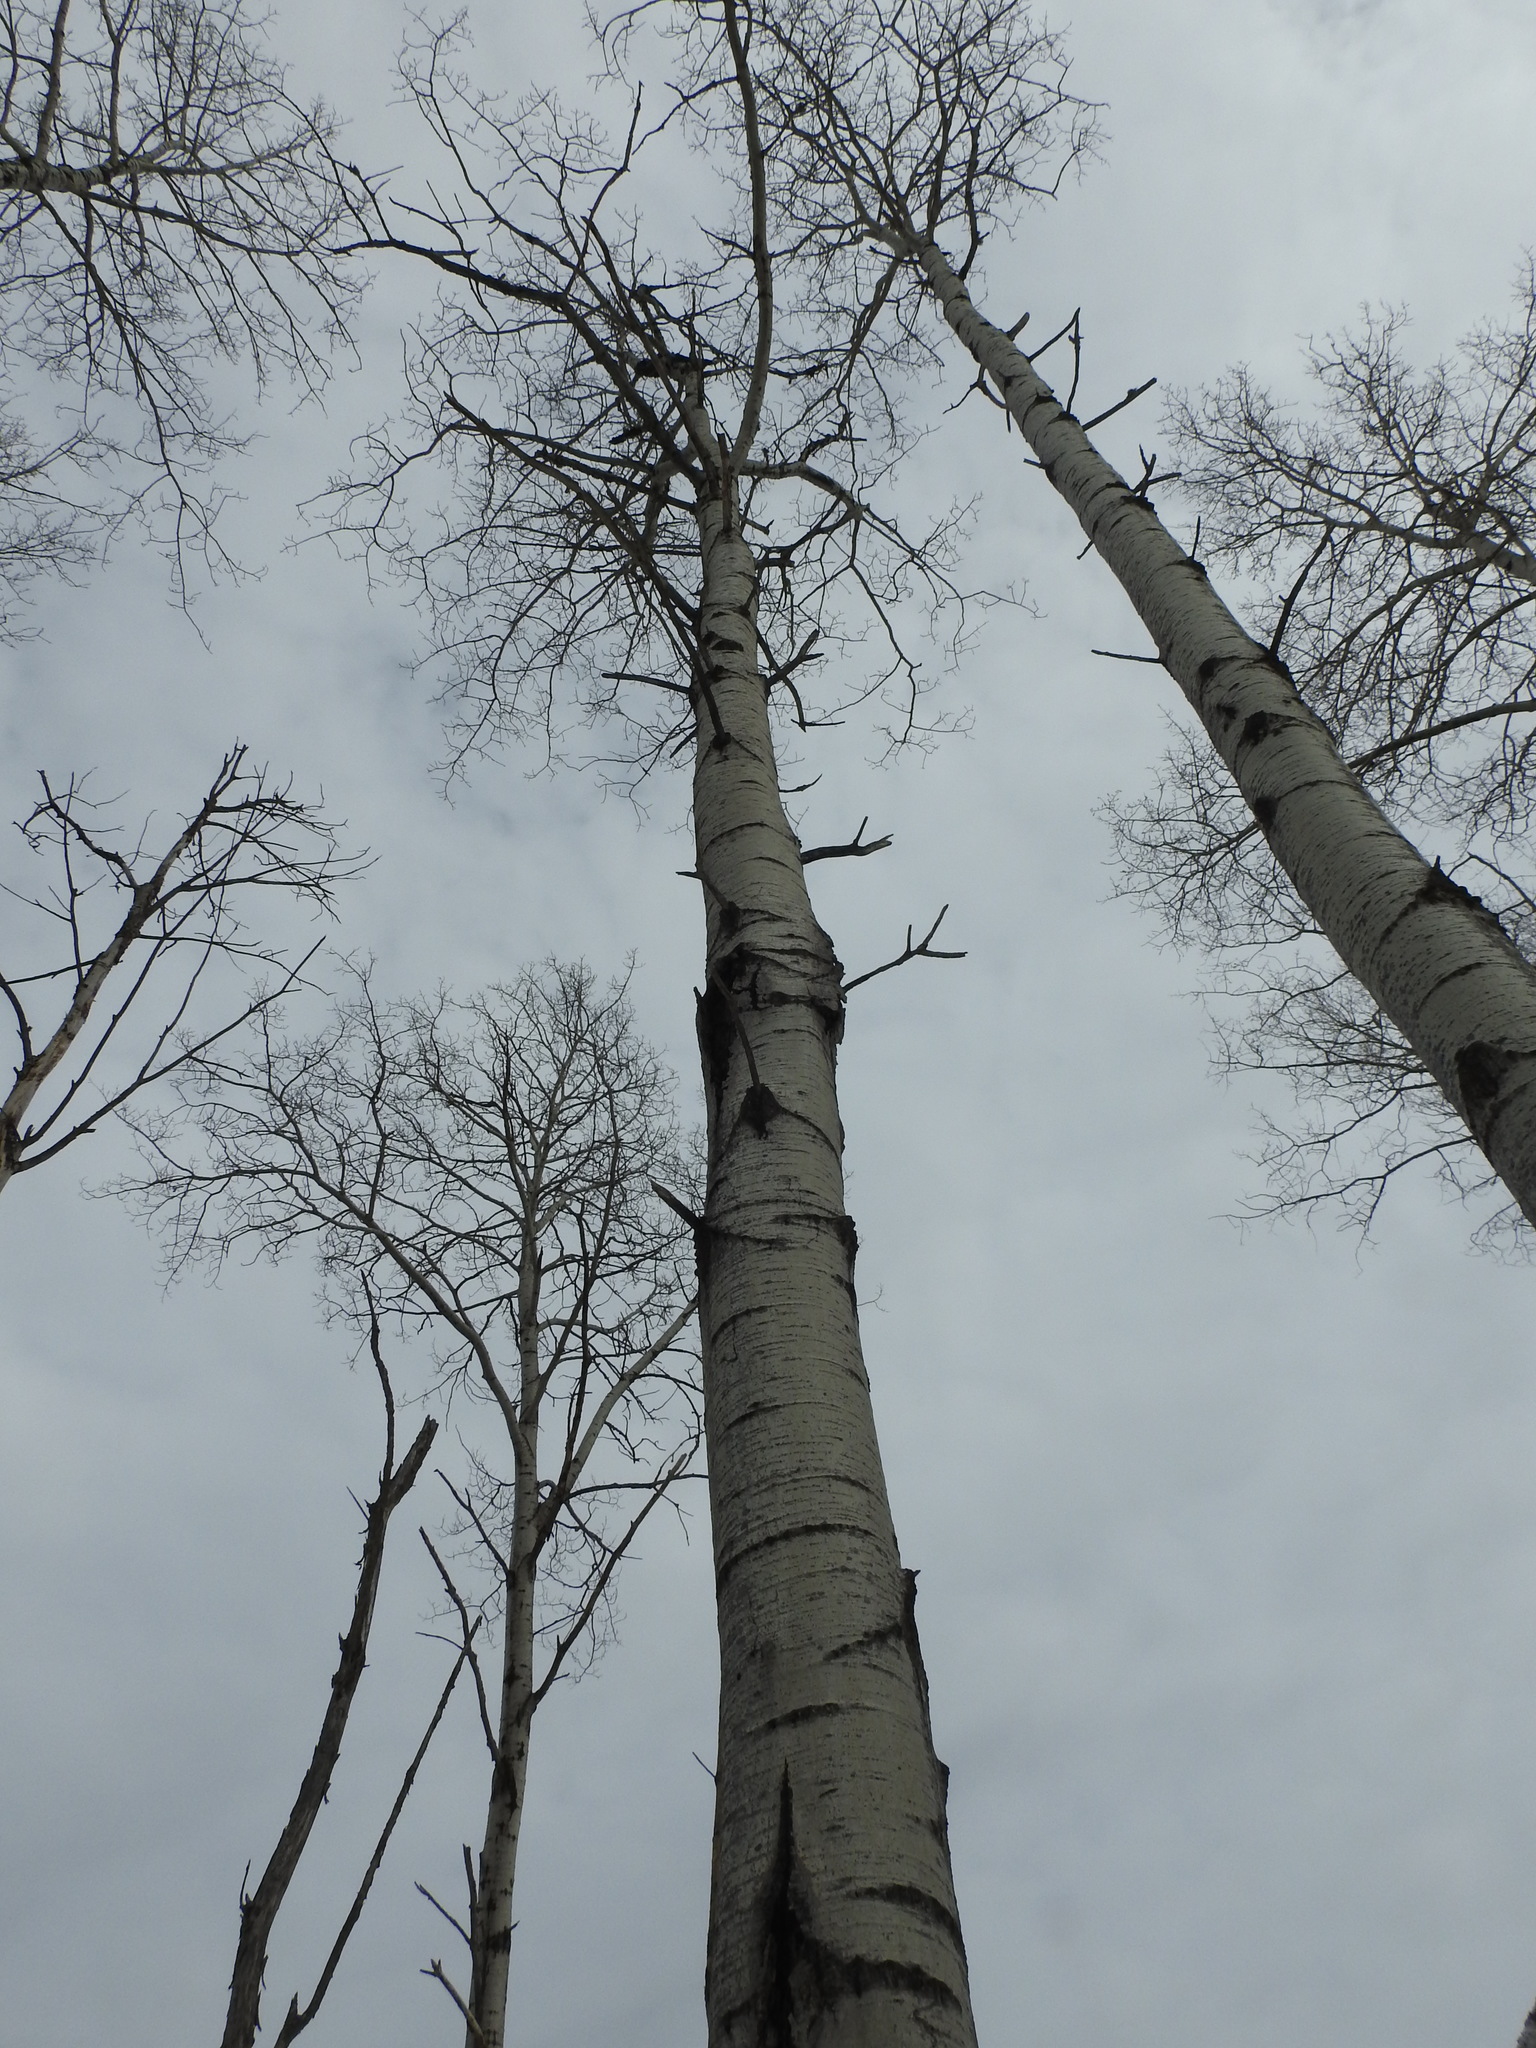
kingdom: Plantae
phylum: Tracheophyta
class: Magnoliopsida
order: Malpighiales
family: Salicaceae
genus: Populus
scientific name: Populus tremuloides
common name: Quaking aspen
